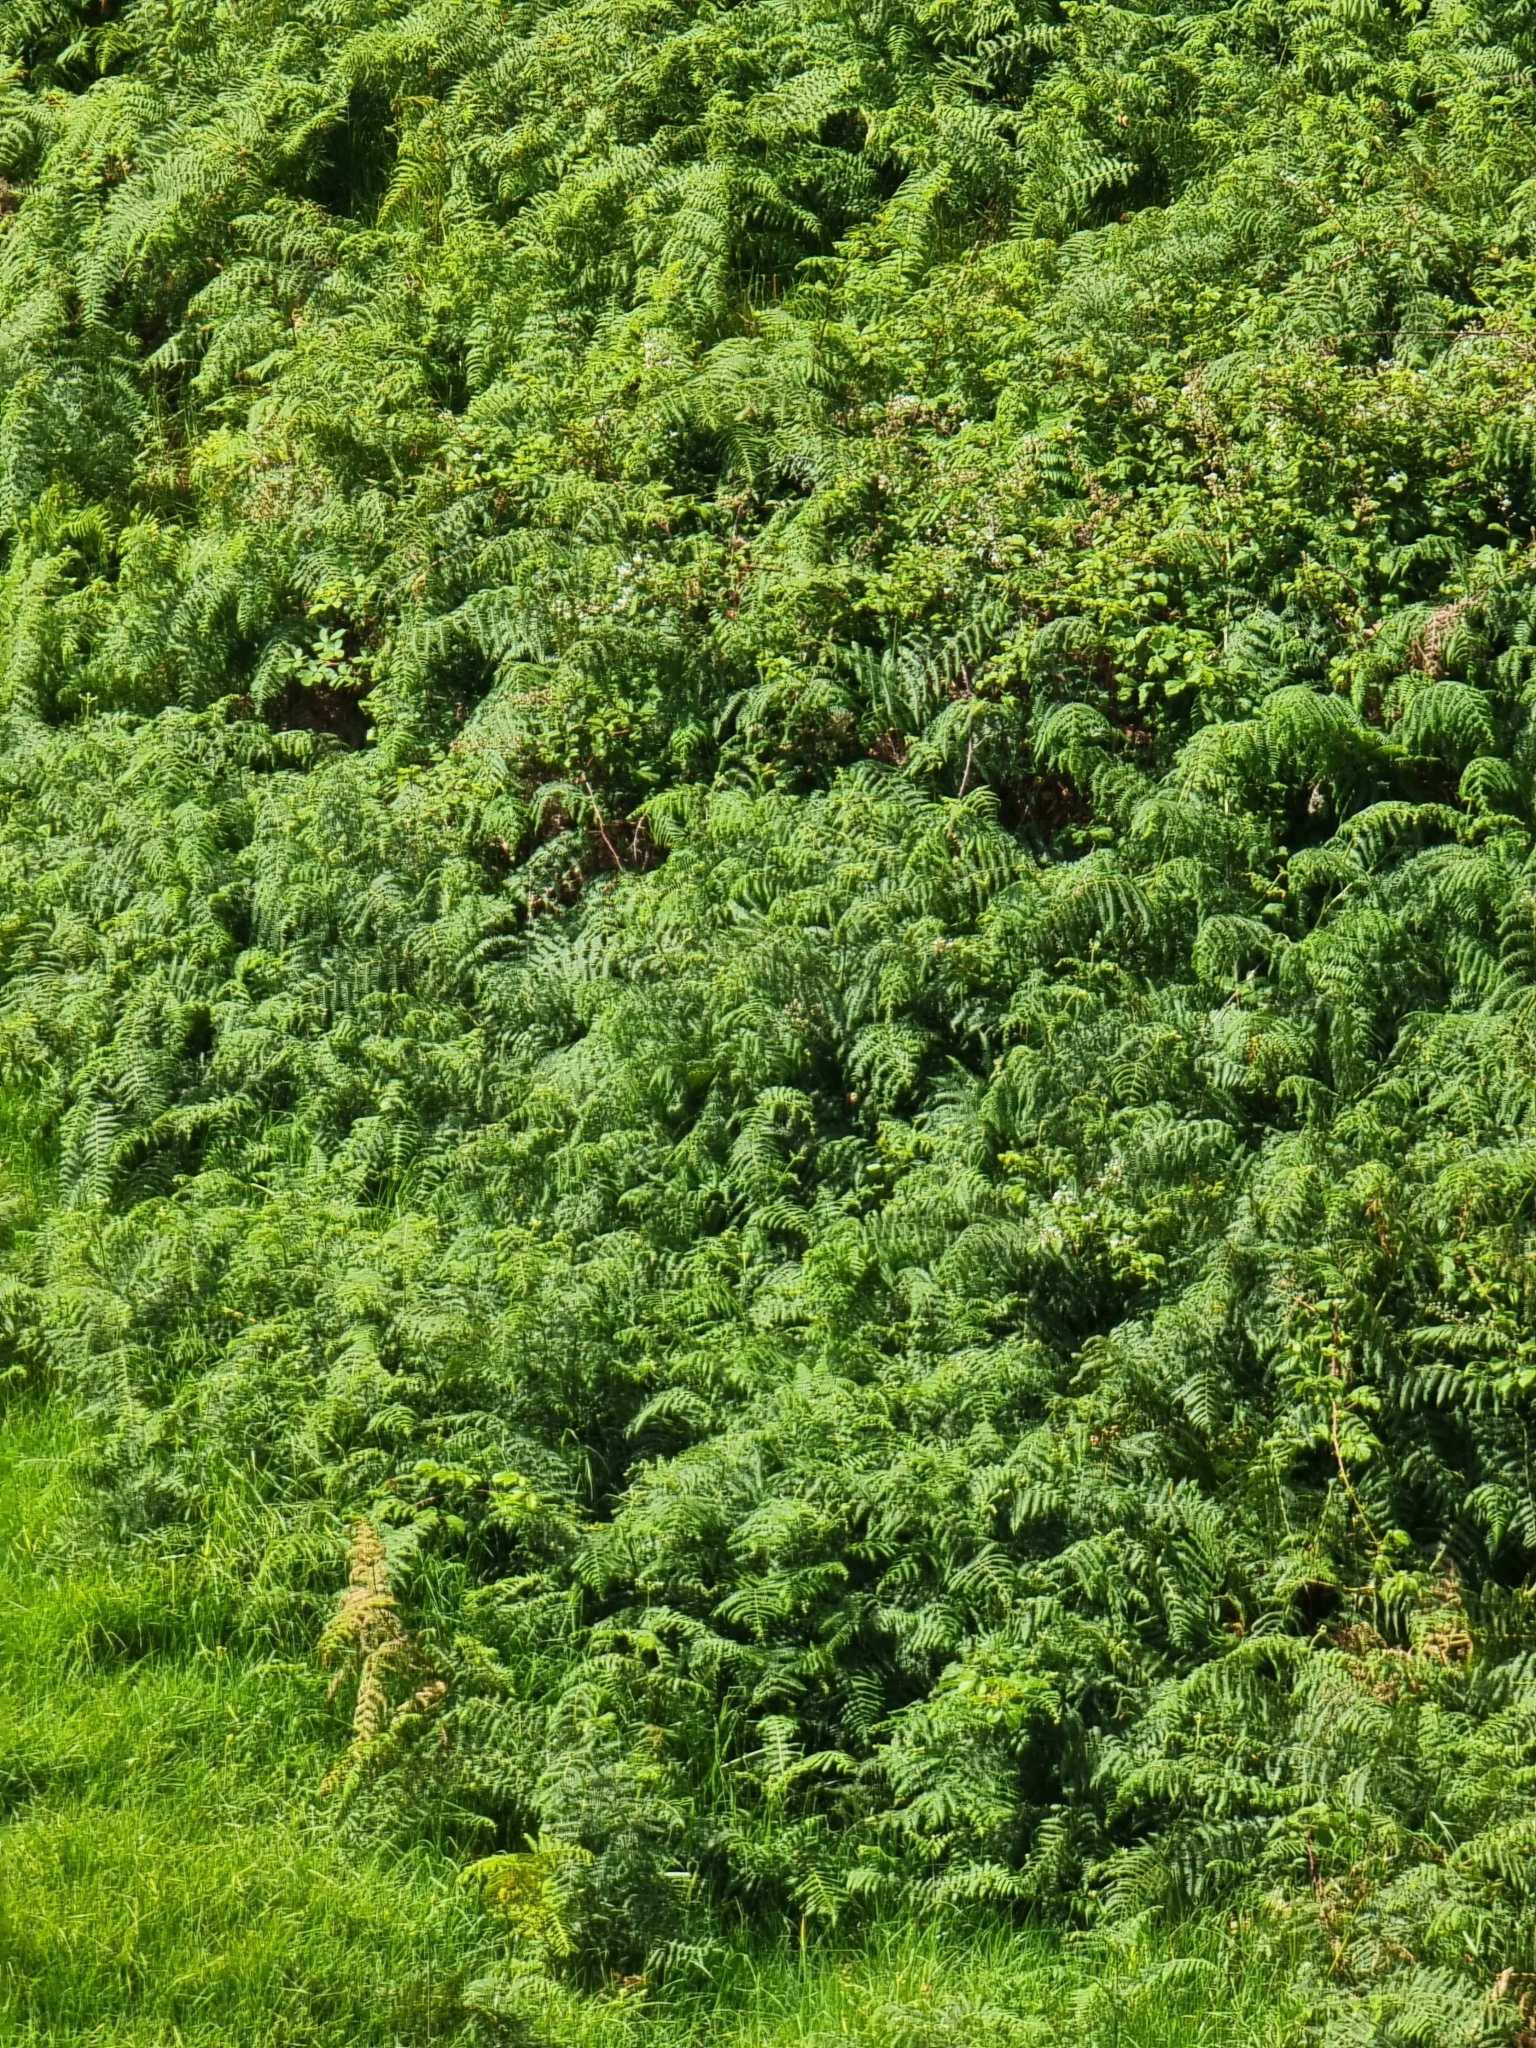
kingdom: Plantae
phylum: Tracheophyta
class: Polypodiopsida
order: Polypodiales
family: Dennstaedtiaceae
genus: Pteridium
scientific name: Pteridium aquilinum
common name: Bracken
